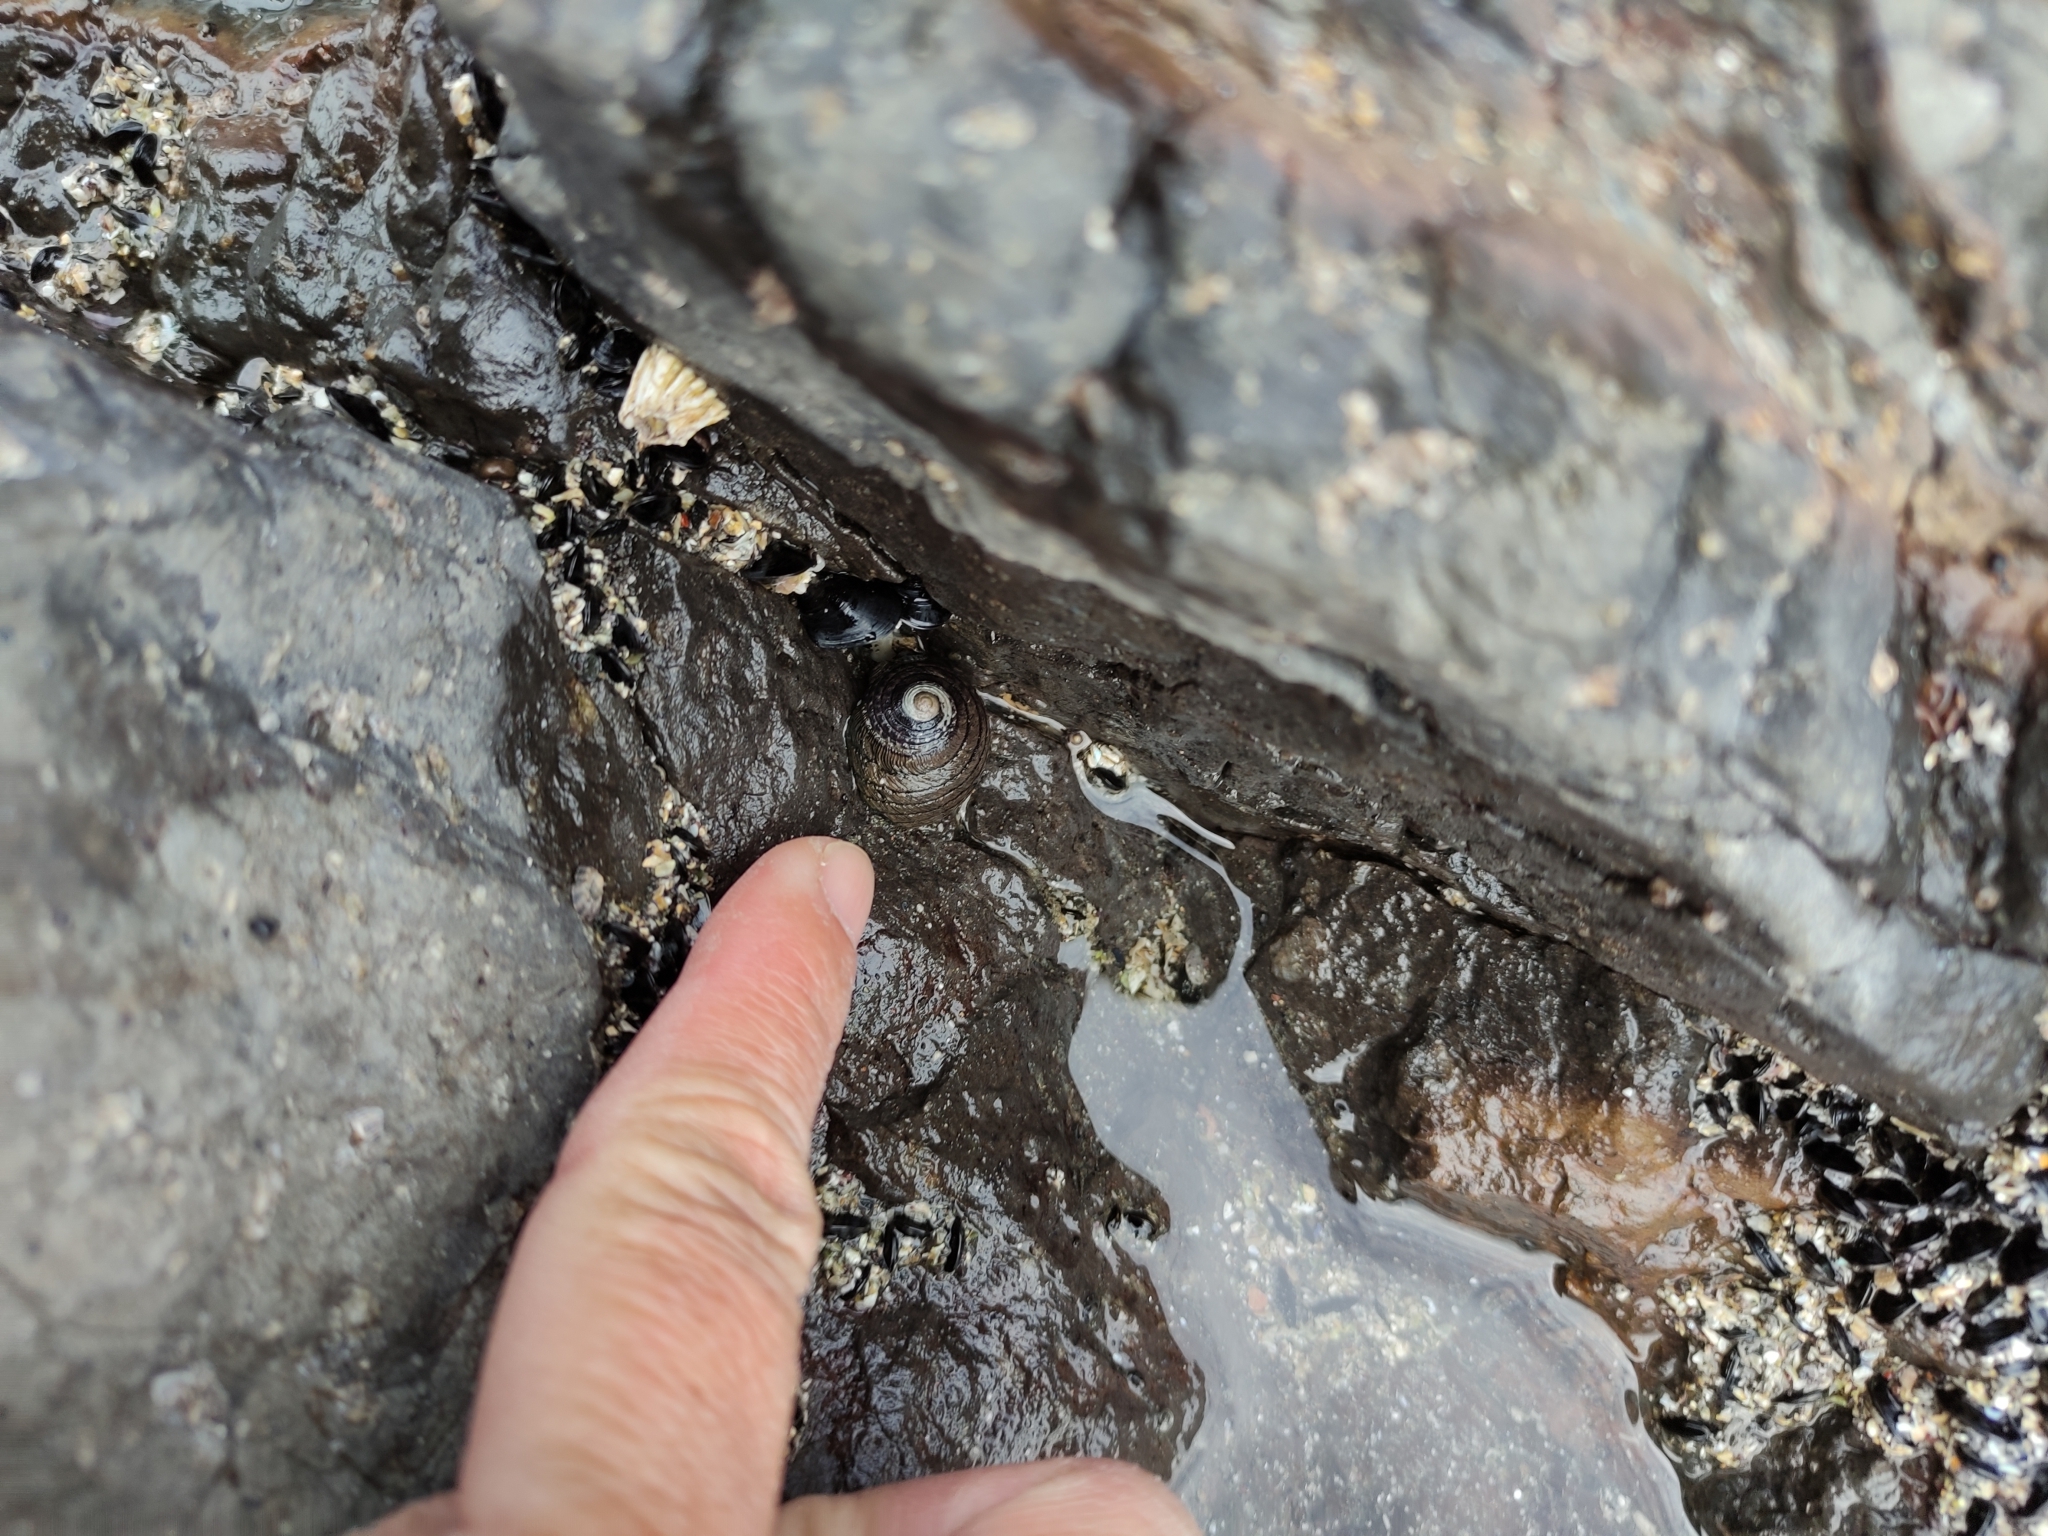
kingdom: Animalia
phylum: Mollusca
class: Gastropoda
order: Trochida
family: Trochidae
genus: Diloma
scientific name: Diloma aethiops
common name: Scorched monodont
